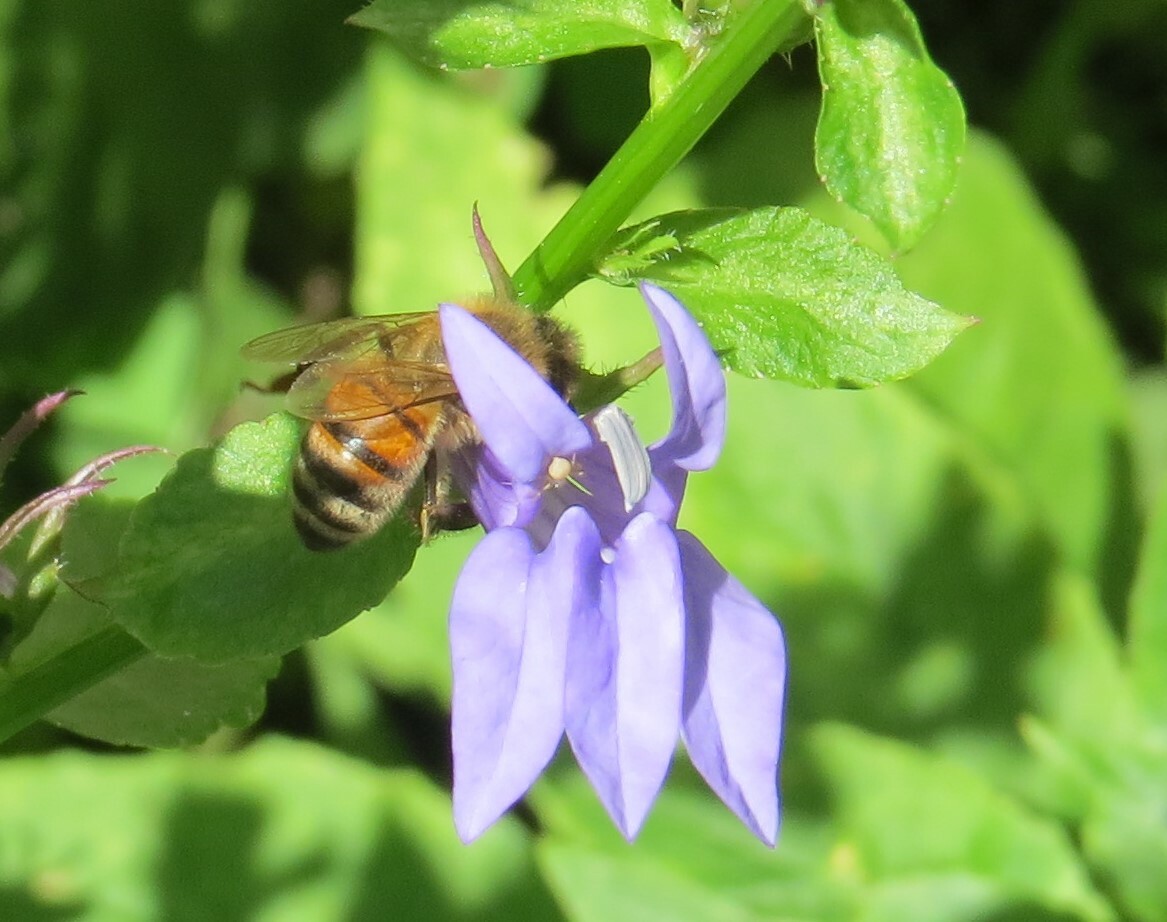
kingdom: Animalia
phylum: Arthropoda
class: Insecta
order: Hymenoptera
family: Apidae
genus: Apis
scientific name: Apis mellifera
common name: Honey bee
